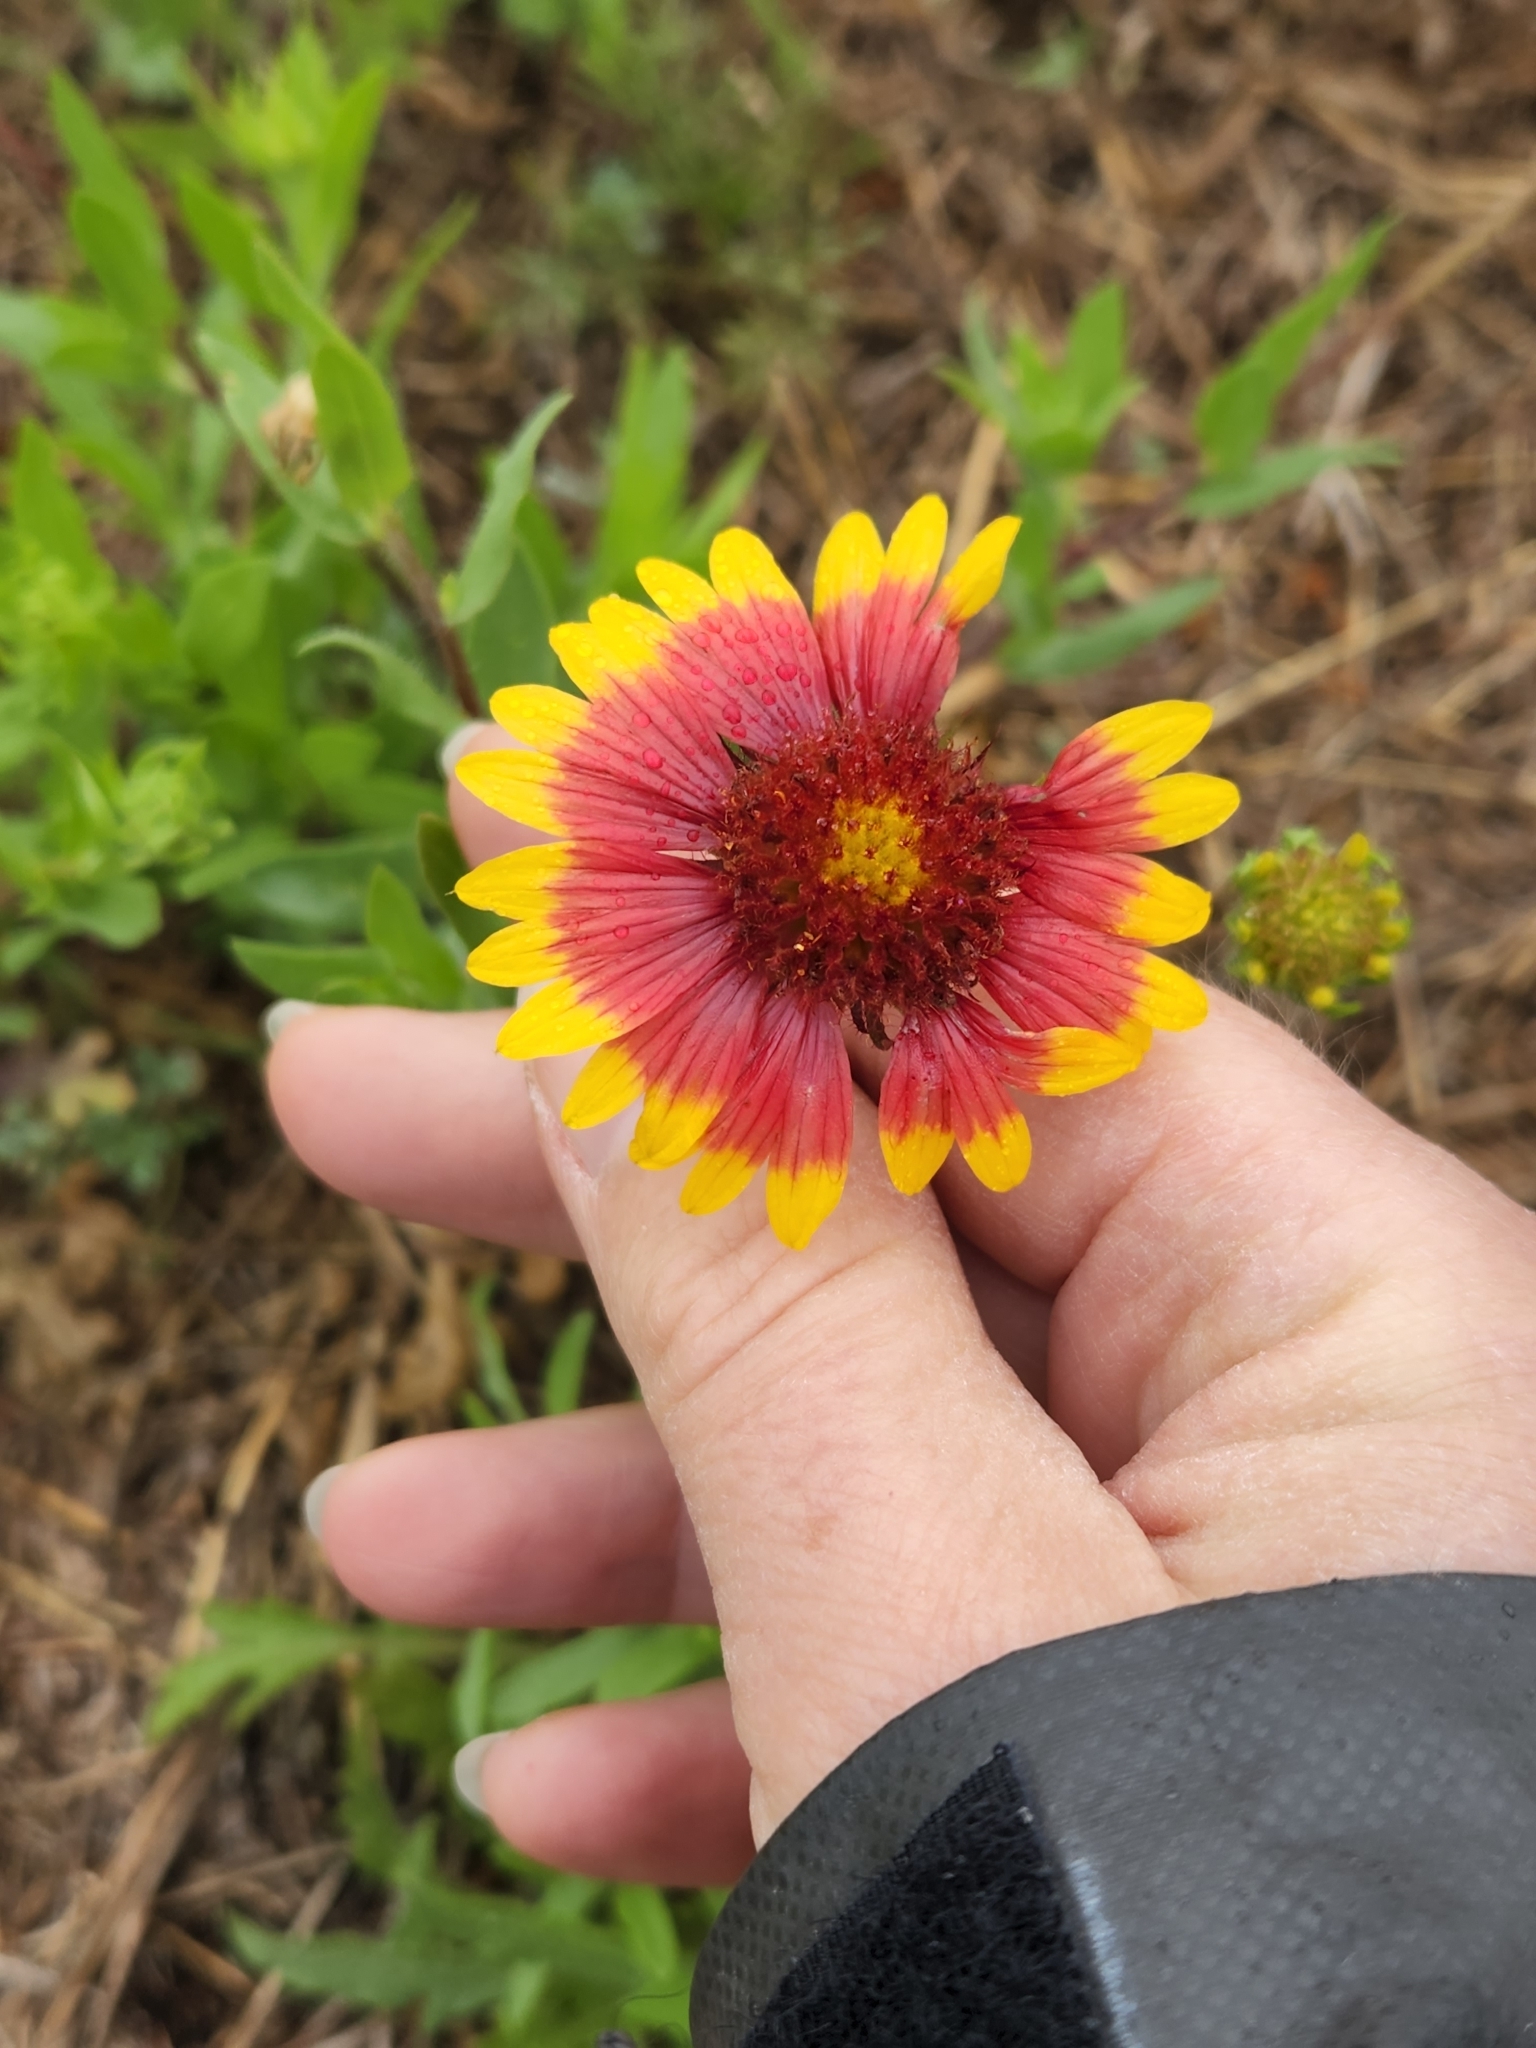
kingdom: Plantae
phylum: Tracheophyta
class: Magnoliopsida
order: Asterales
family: Asteraceae
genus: Gaillardia
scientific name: Gaillardia pulchella
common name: Firewheel
